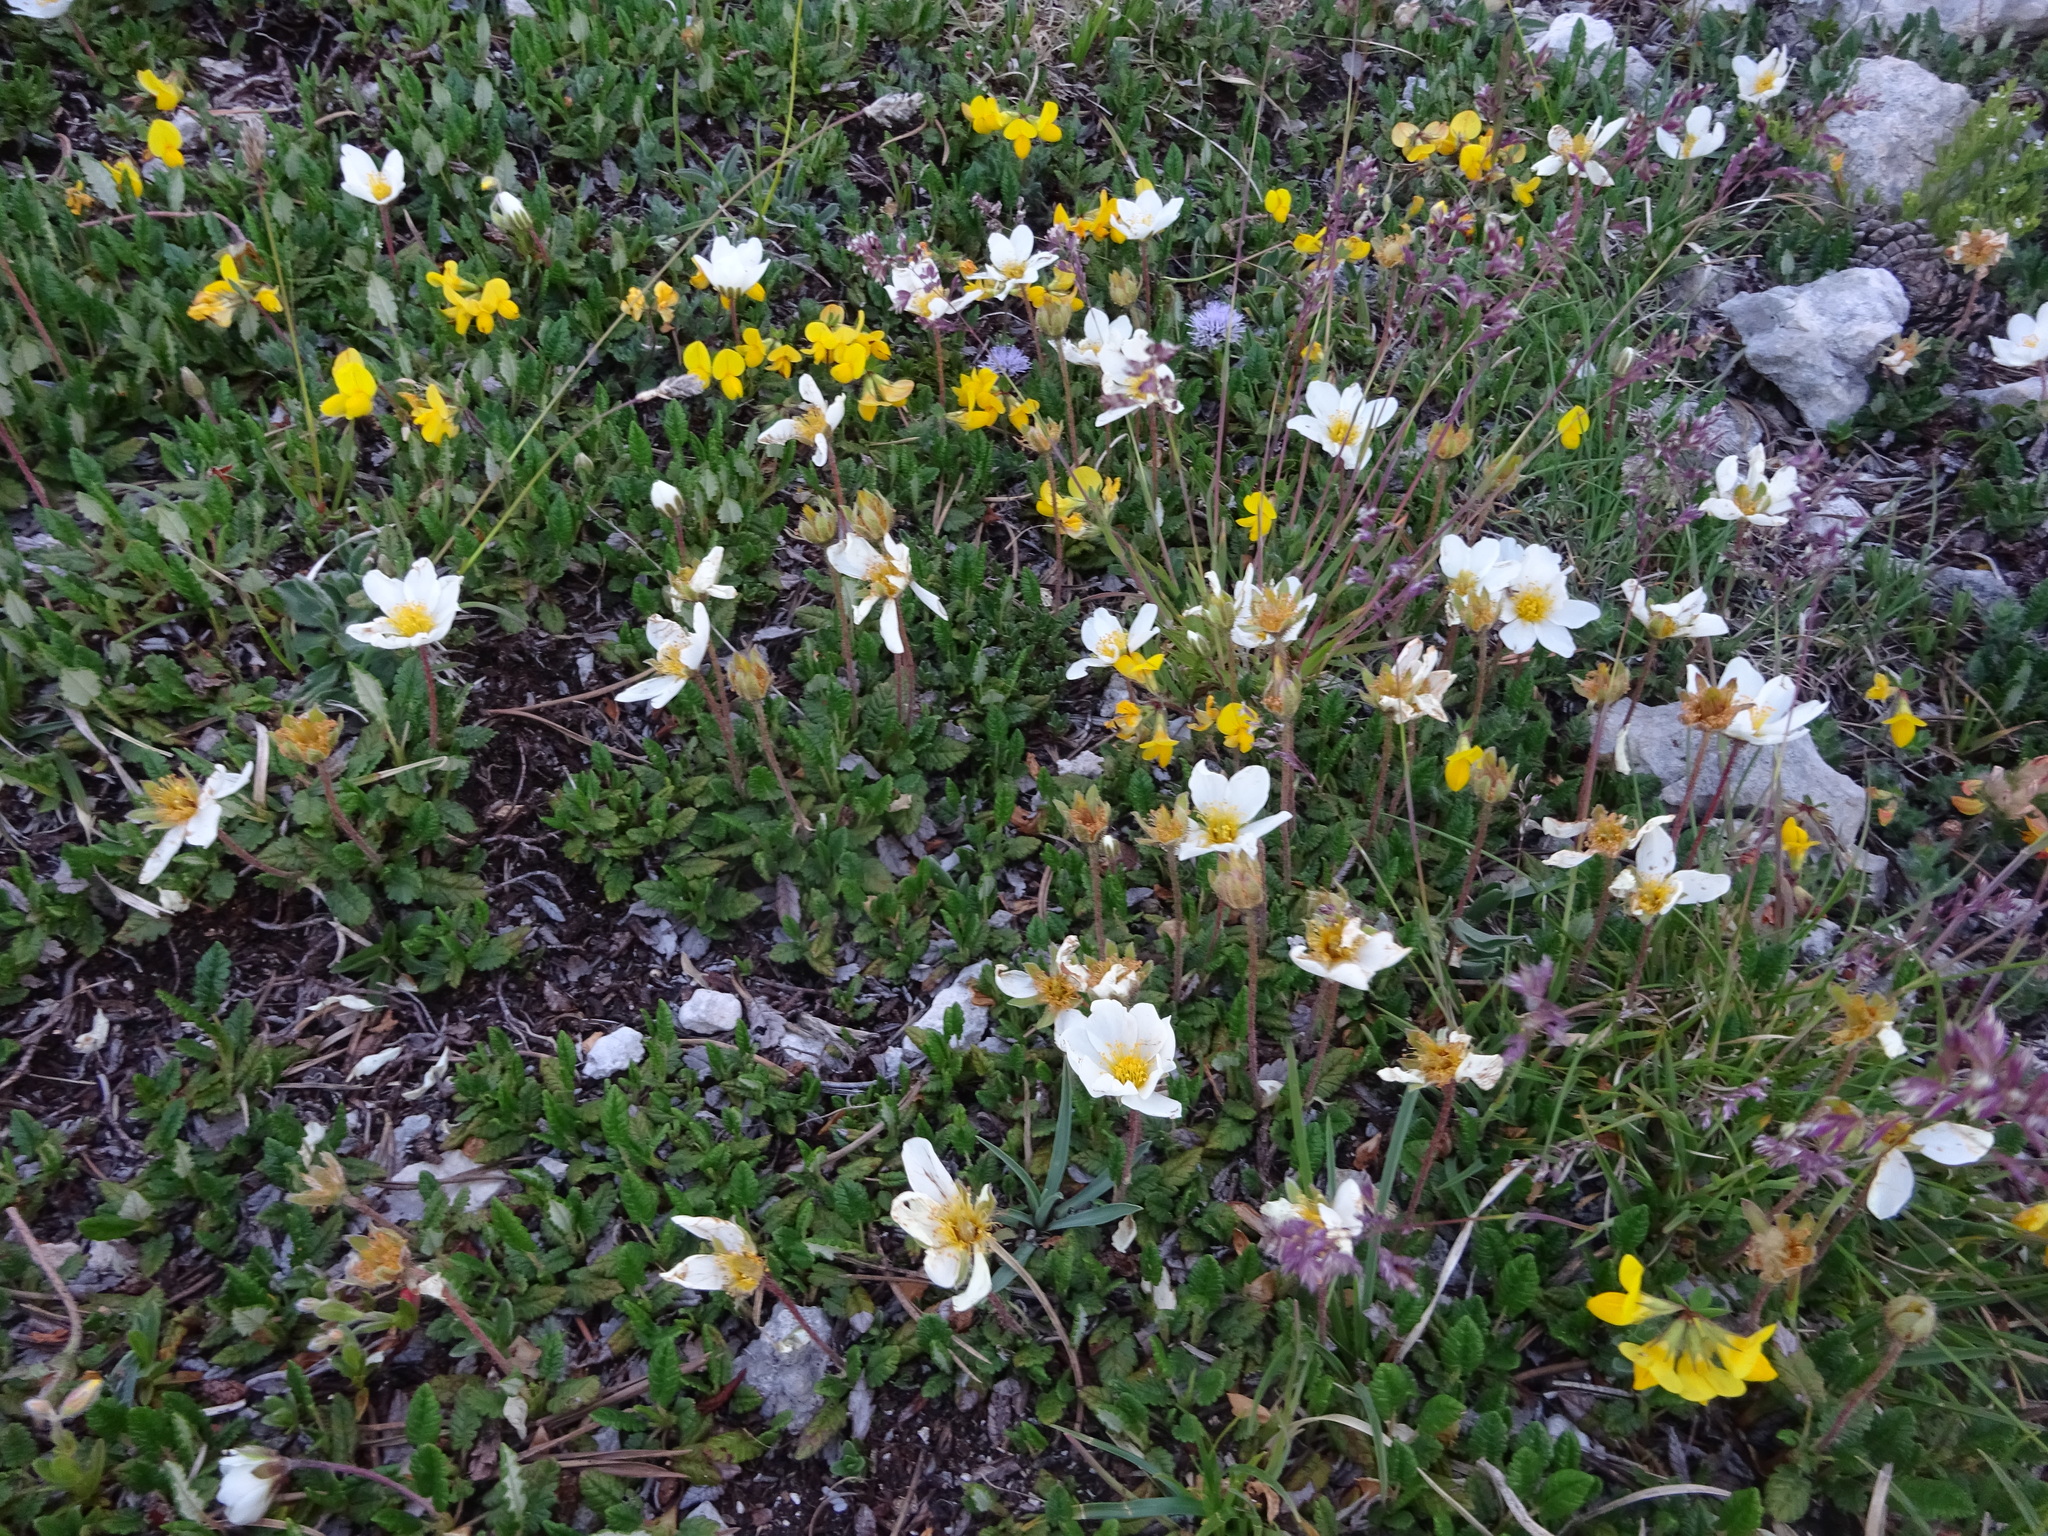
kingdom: Plantae
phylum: Tracheophyta
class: Magnoliopsida
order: Rosales
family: Rosaceae
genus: Dryas
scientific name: Dryas octopetala
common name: Eight-petal mountain-avens
